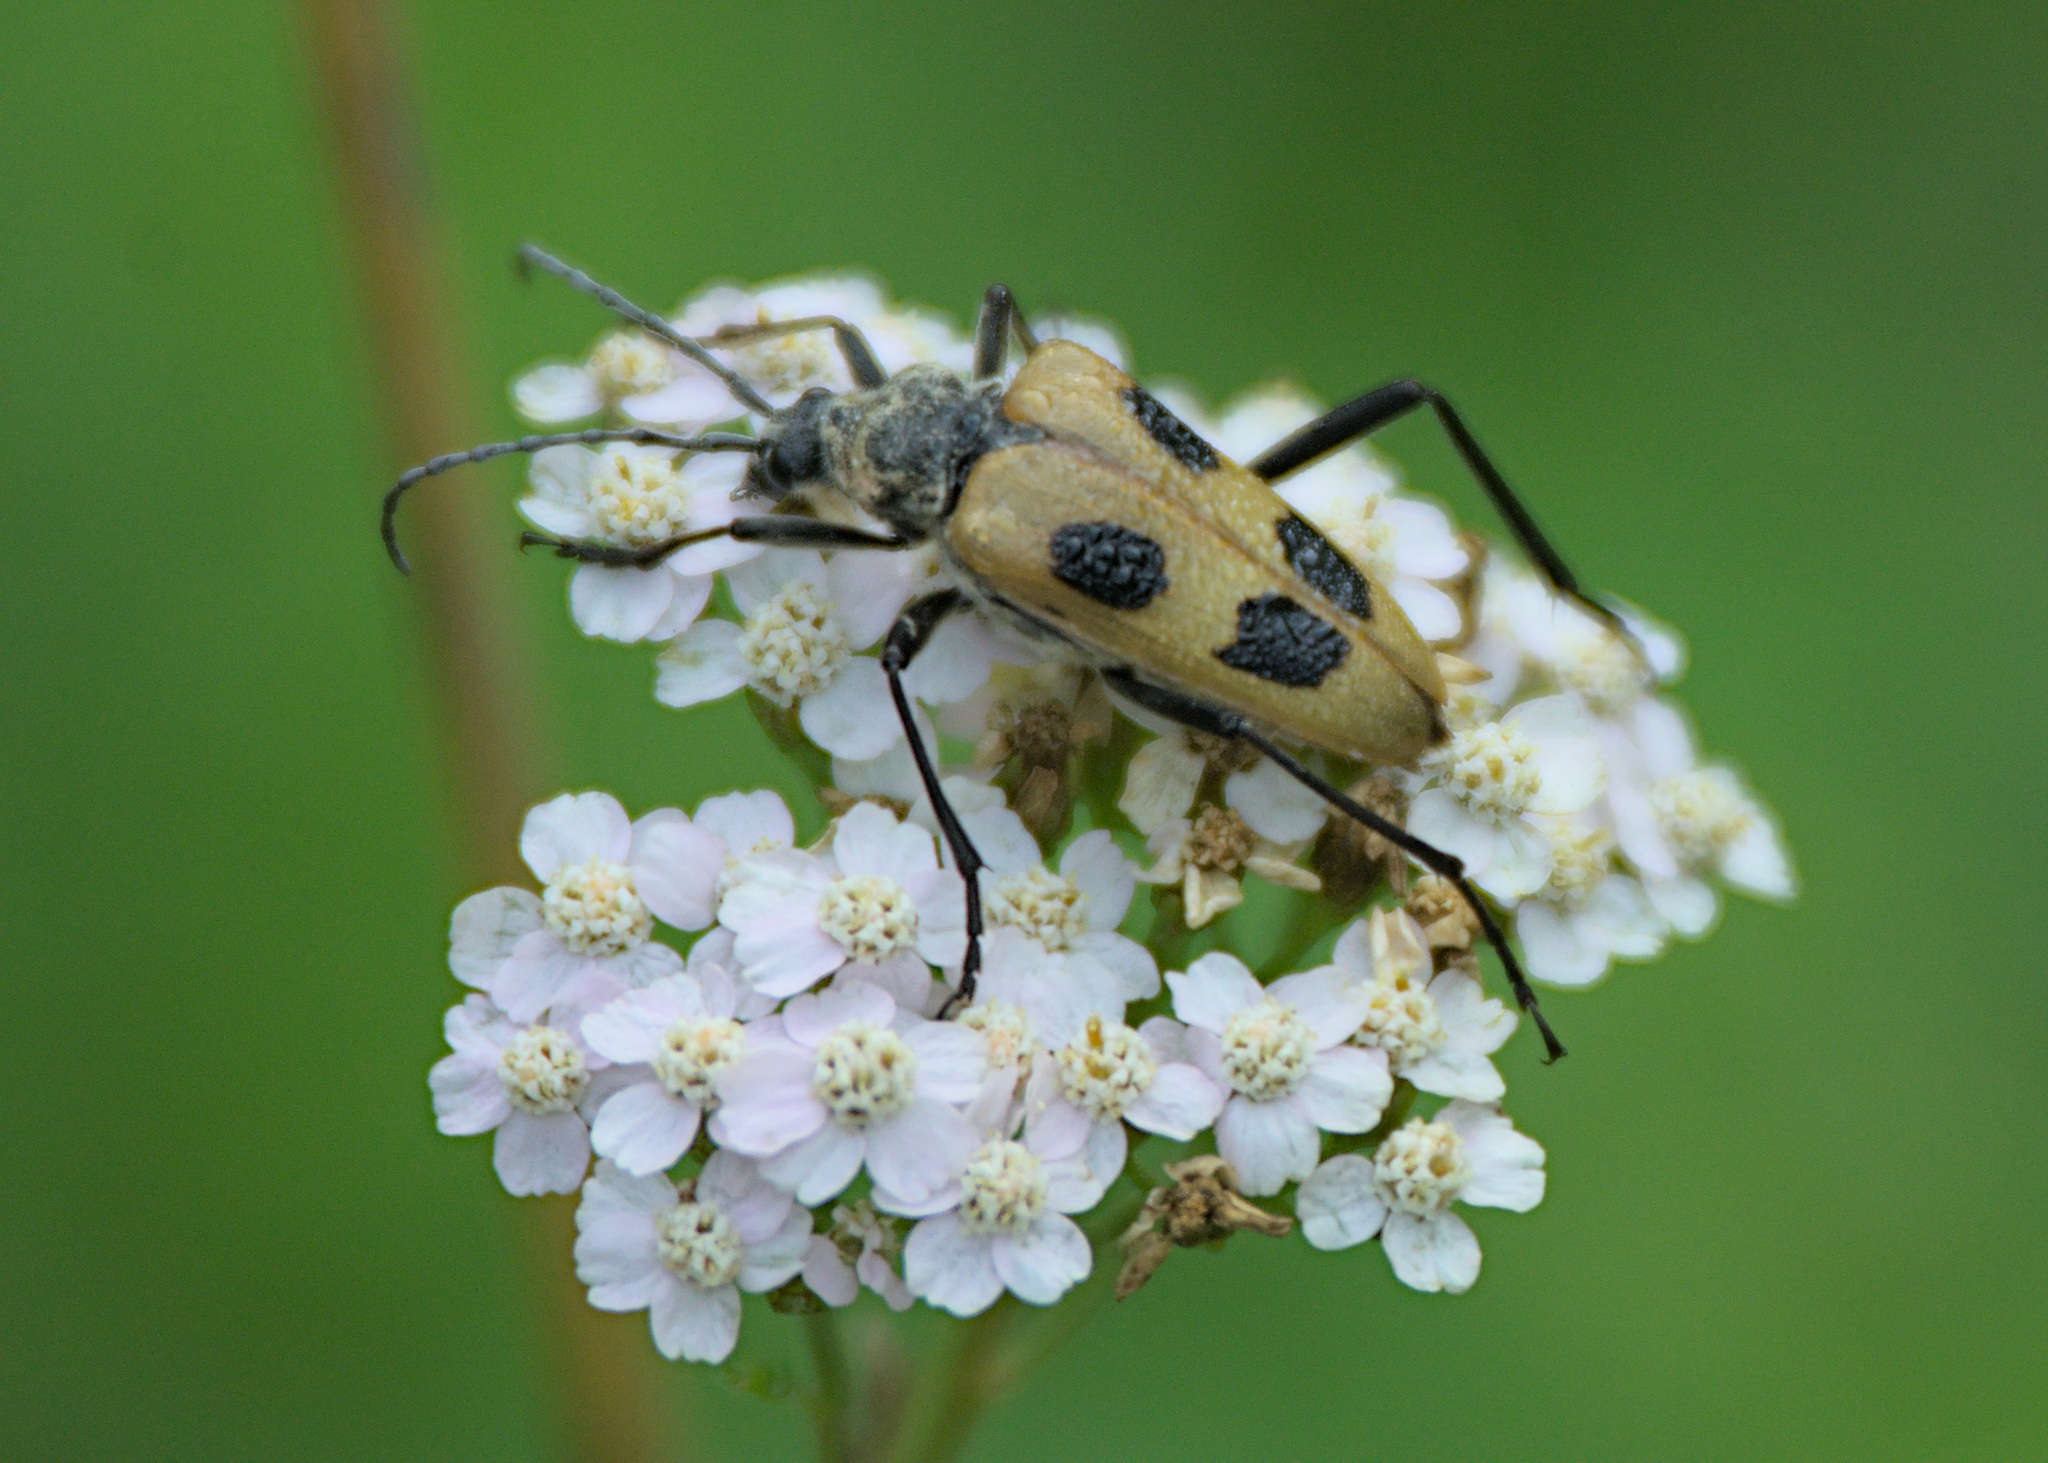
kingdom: Animalia
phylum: Arthropoda
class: Insecta
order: Coleoptera
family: Cerambycidae
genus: Pachyta
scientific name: Pachyta quadrimaculata
